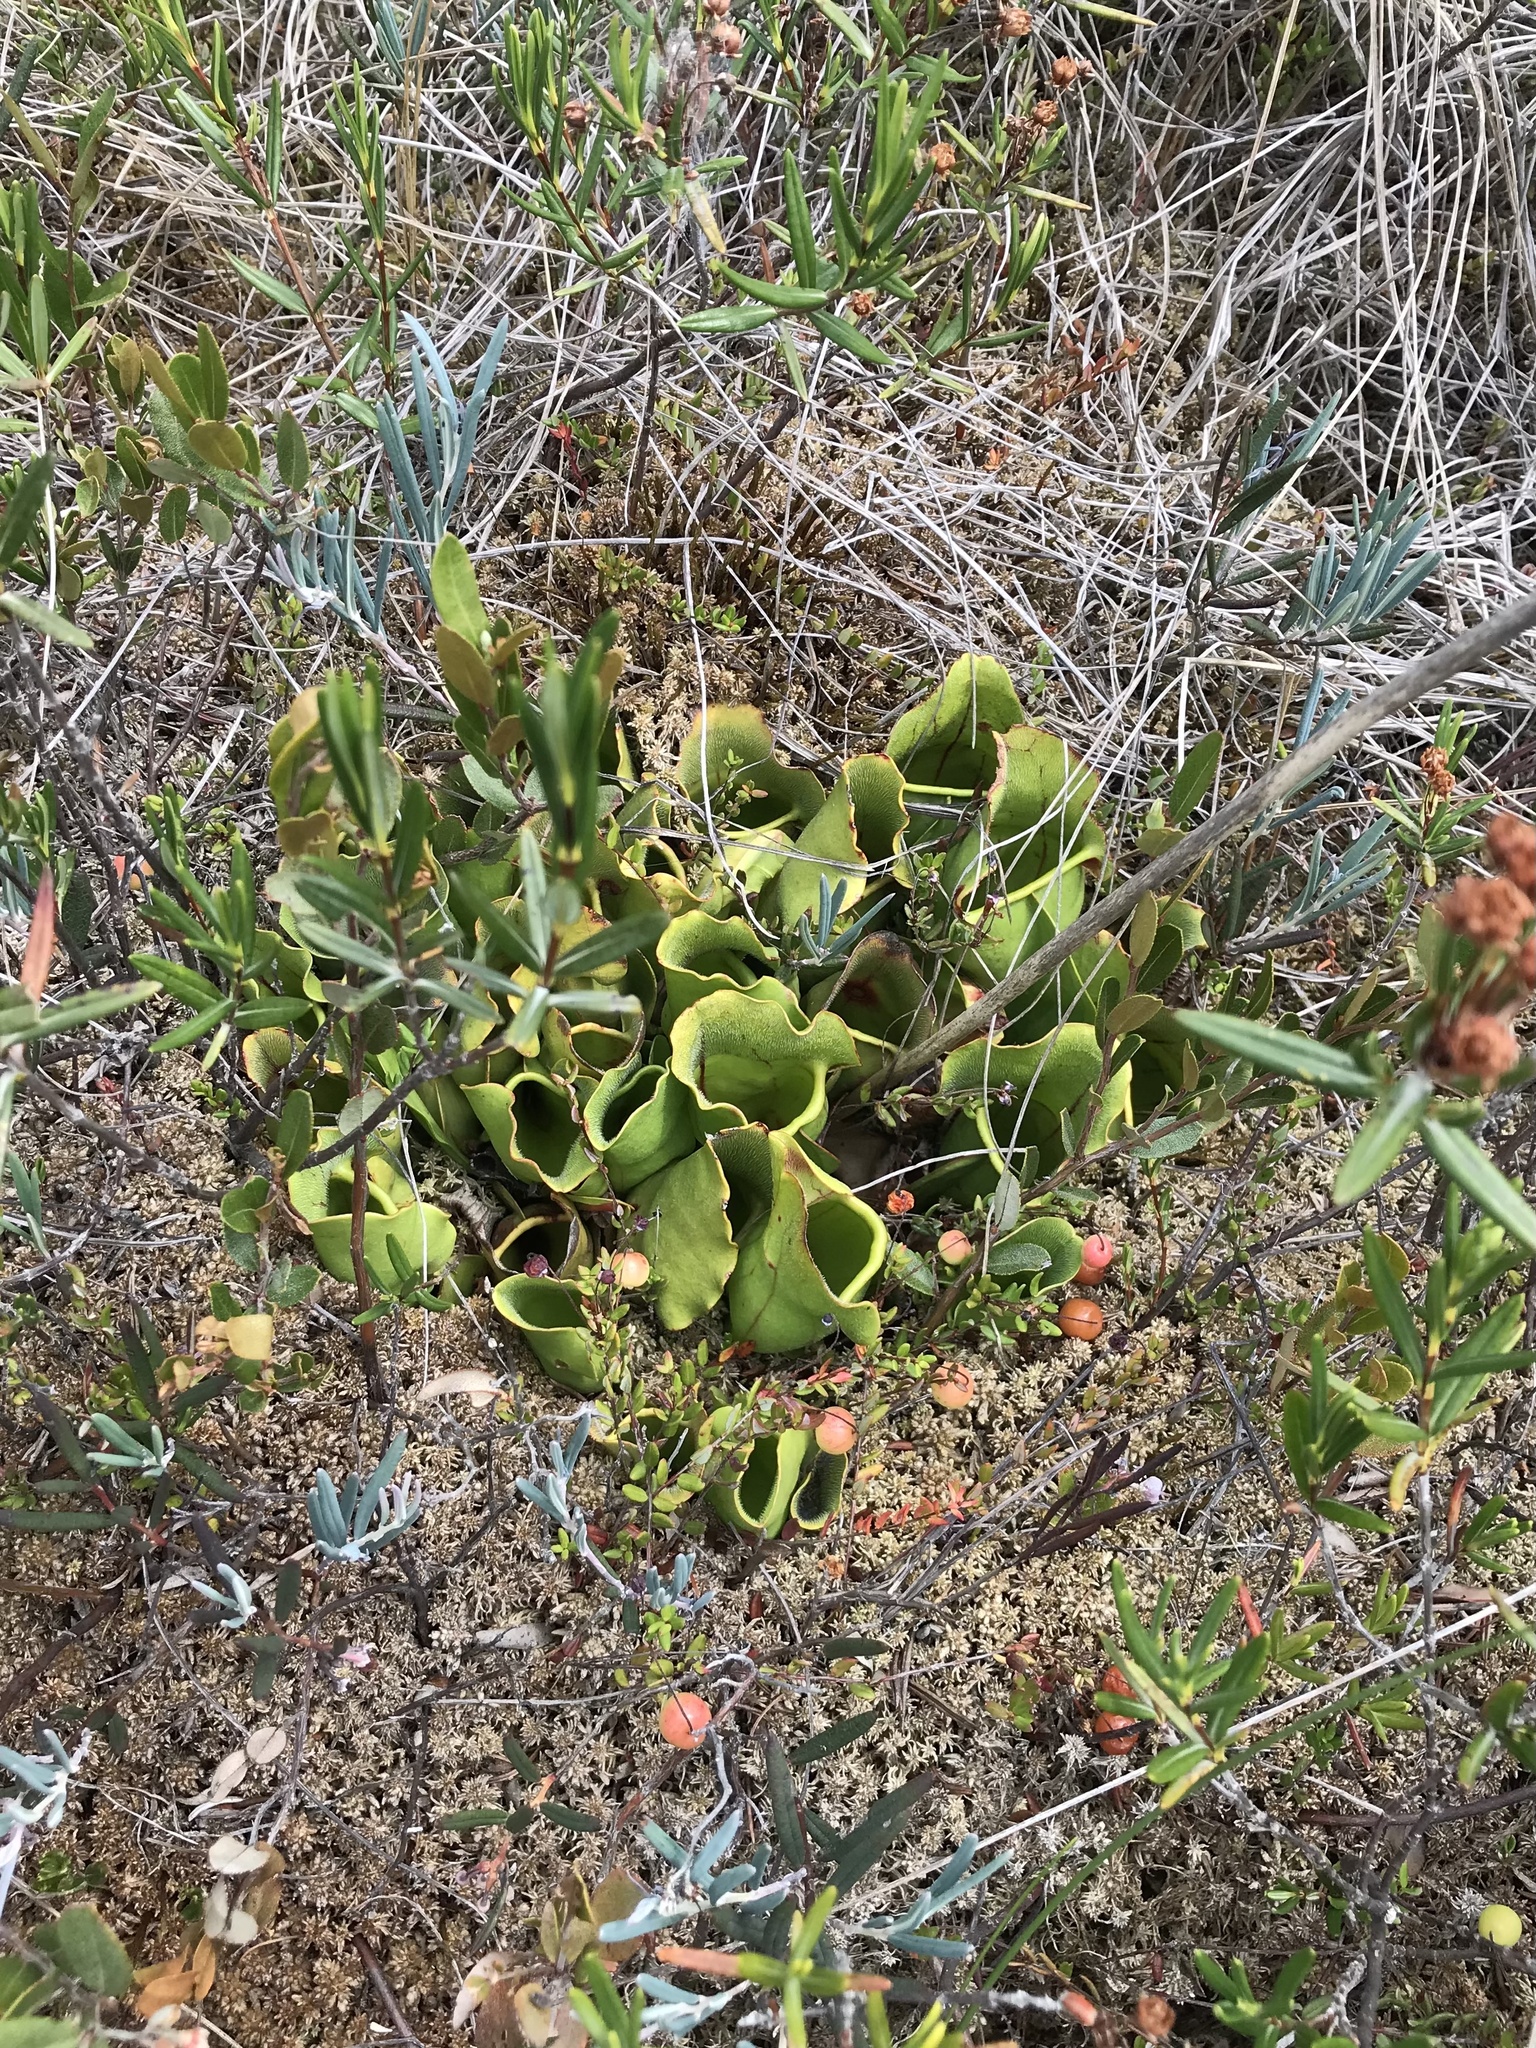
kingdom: Plantae
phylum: Tracheophyta
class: Magnoliopsida
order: Ericales
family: Sarraceniaceae
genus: Sarracenia
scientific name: Sarracenia purpurea
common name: Pitcherplant
